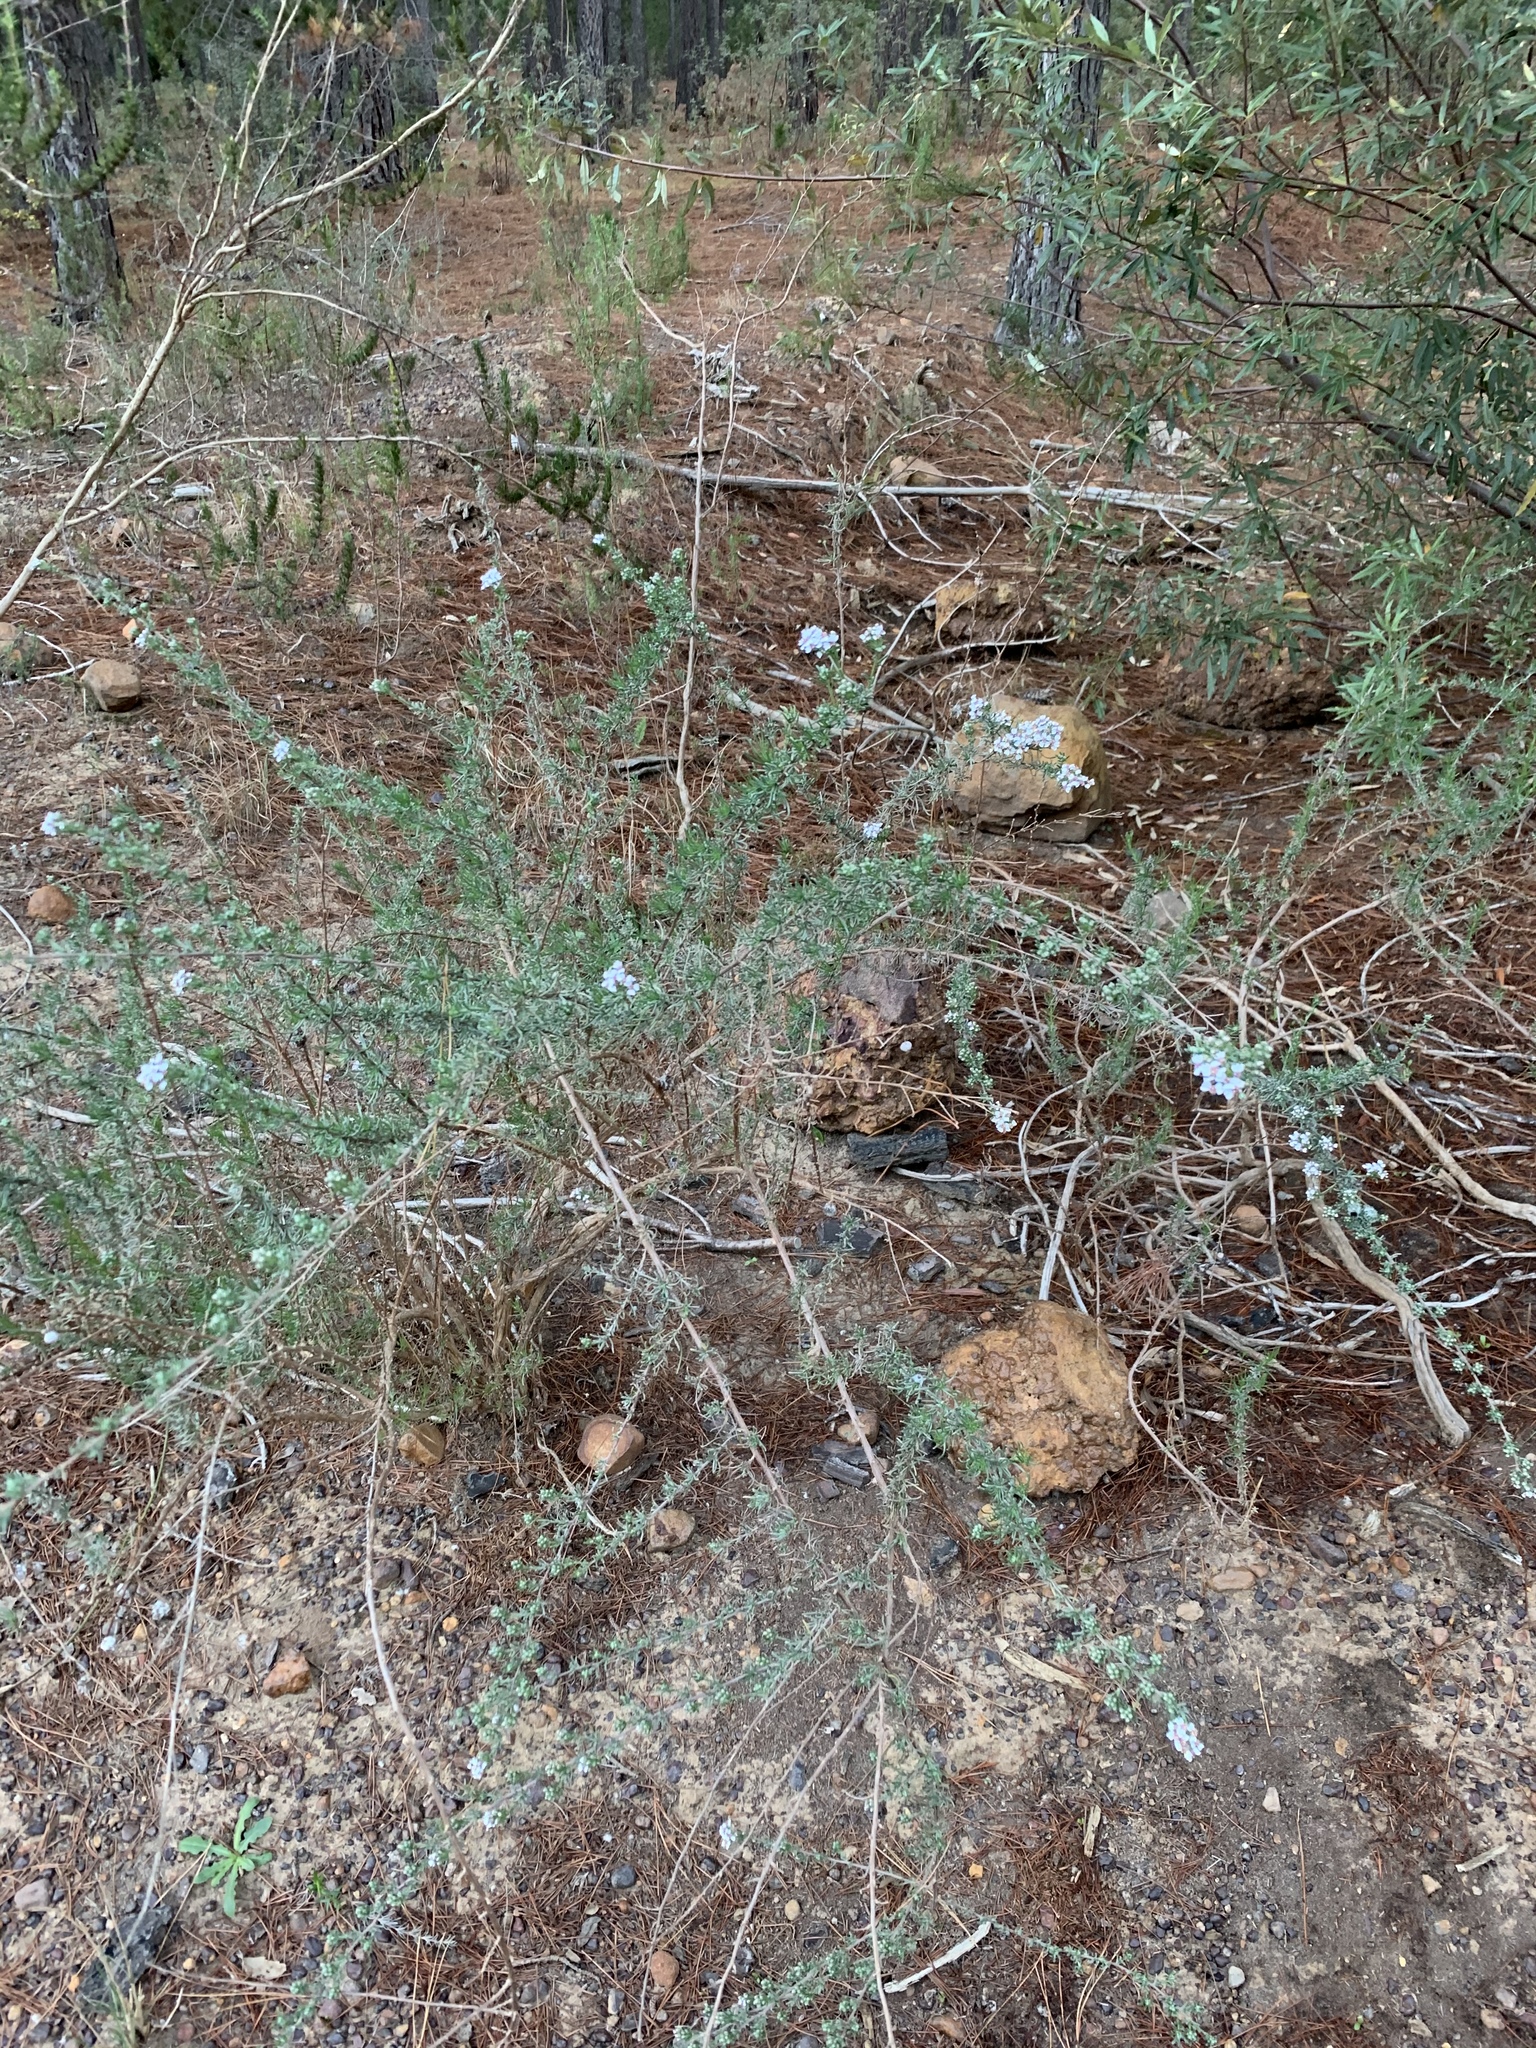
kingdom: Plantae
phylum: Tracheophyta
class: Magnoliopsida
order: Asterales
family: Asteraceae
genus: Eriocephalus
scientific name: Eriocephalus africanus
